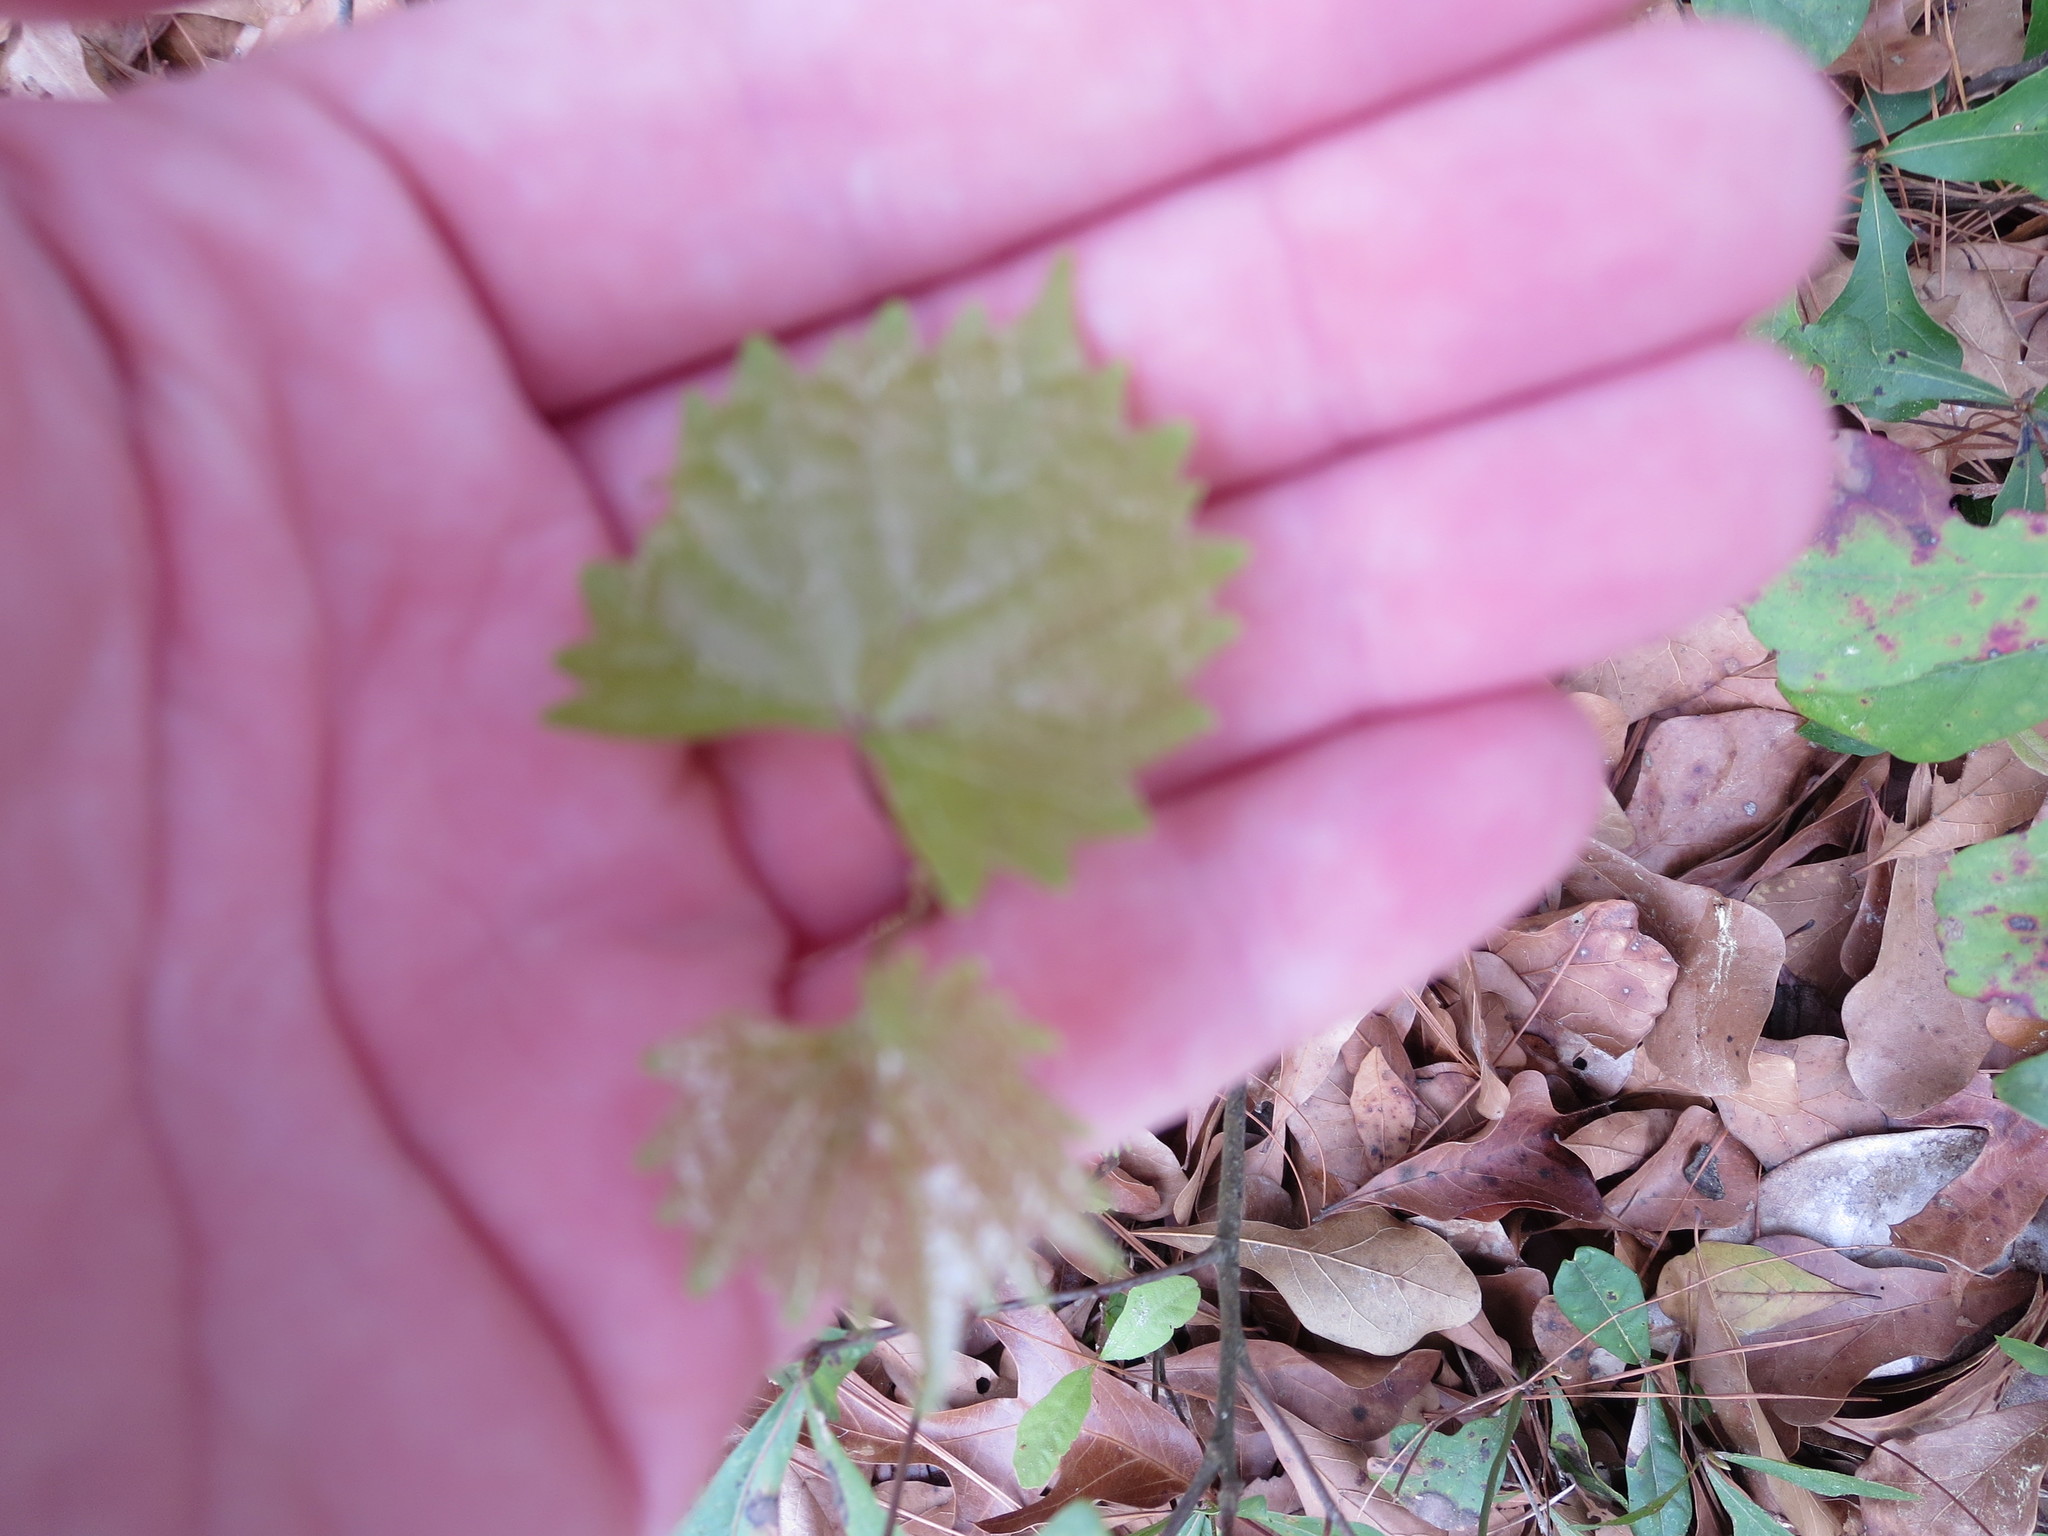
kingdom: Plantae
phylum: Tracheophyta
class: Magnoliopsida
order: Vitales
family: Vitaceae
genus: Vitis
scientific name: Vitis rotundifolia
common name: Muscadine grape
